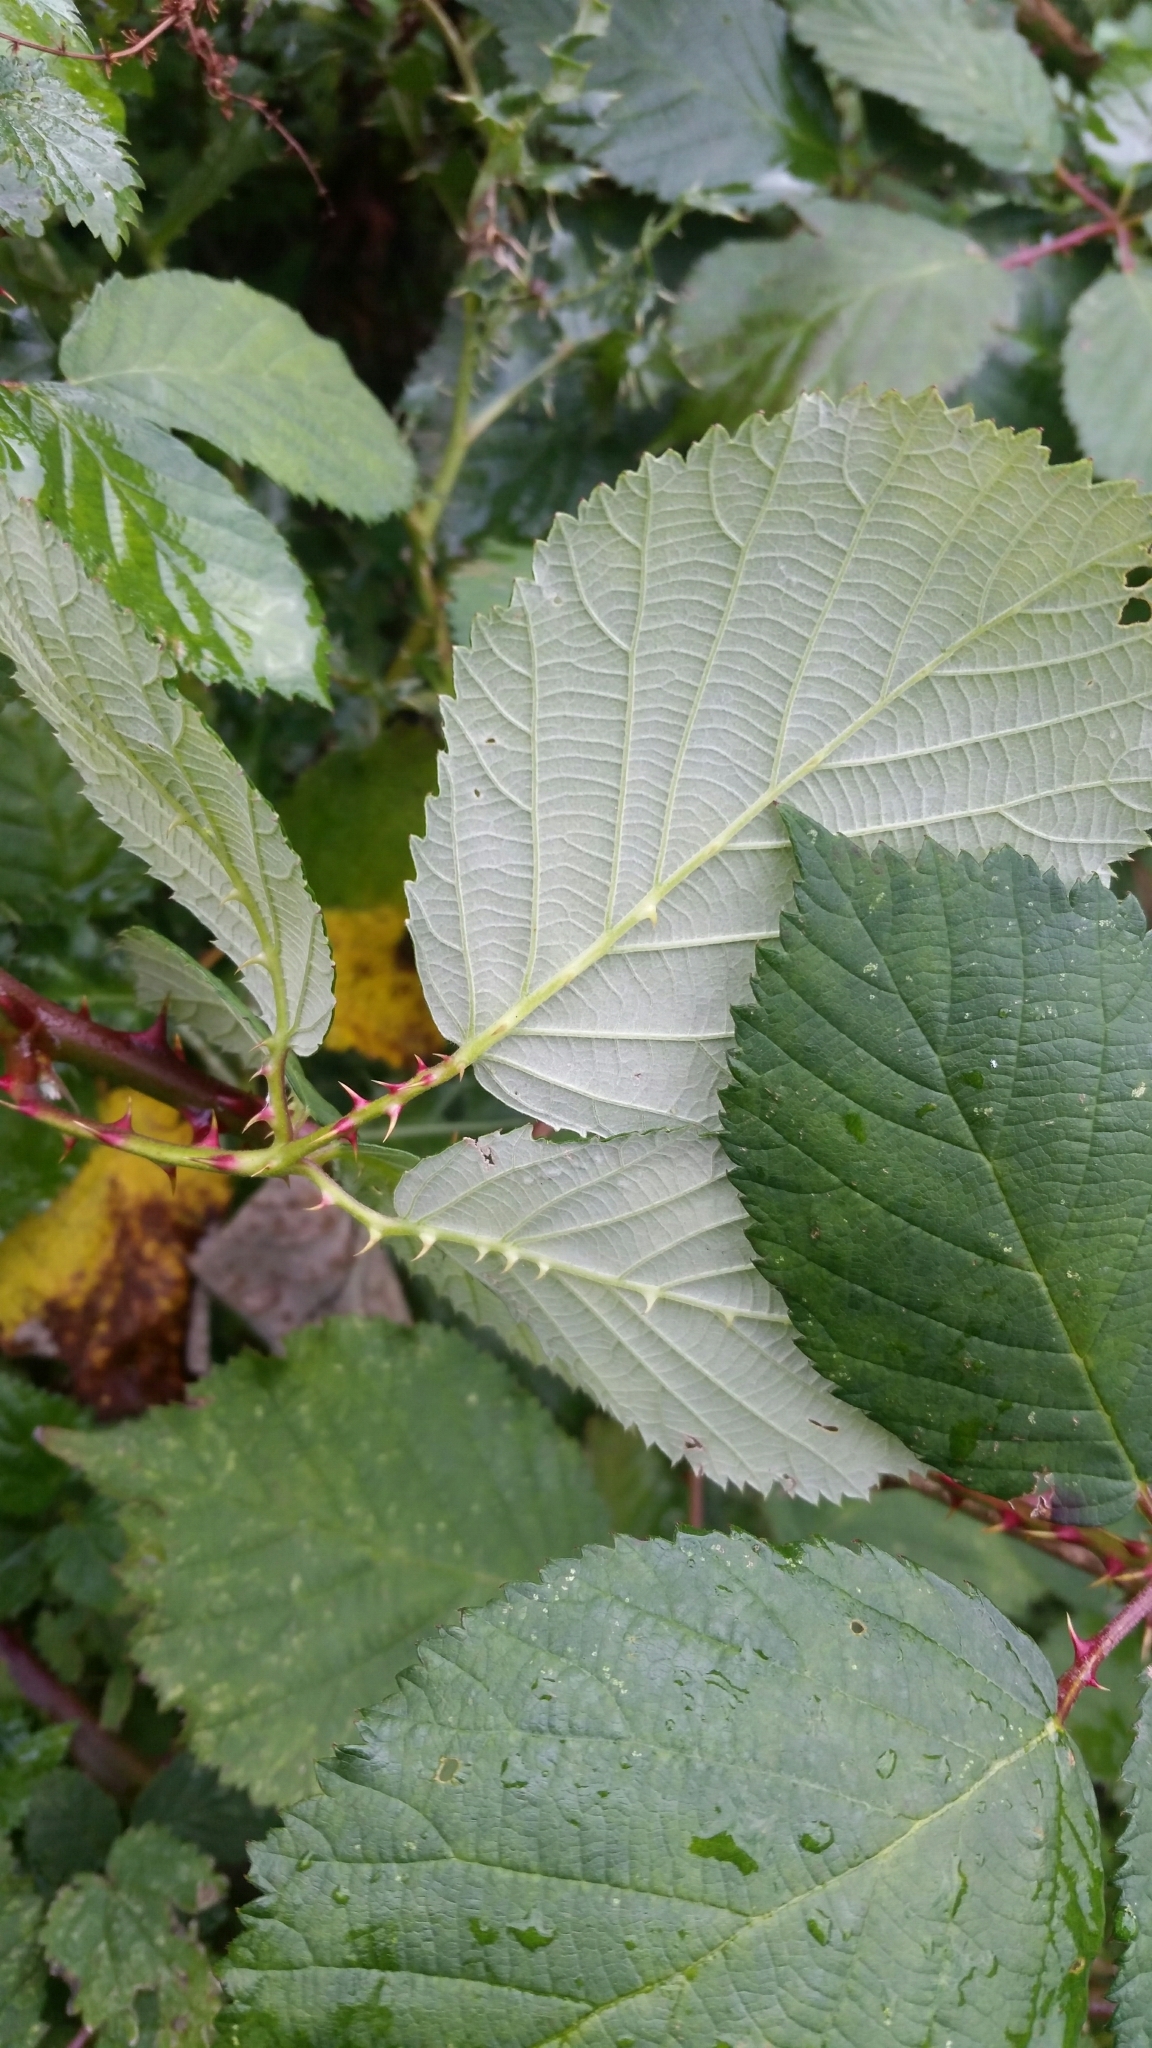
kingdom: Plantae
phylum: Tracheophyta
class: Magnoliopsida
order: Rosales
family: Rosaceae
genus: Rubus
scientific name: Rubus armeniacus
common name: Himalayan blackberry
